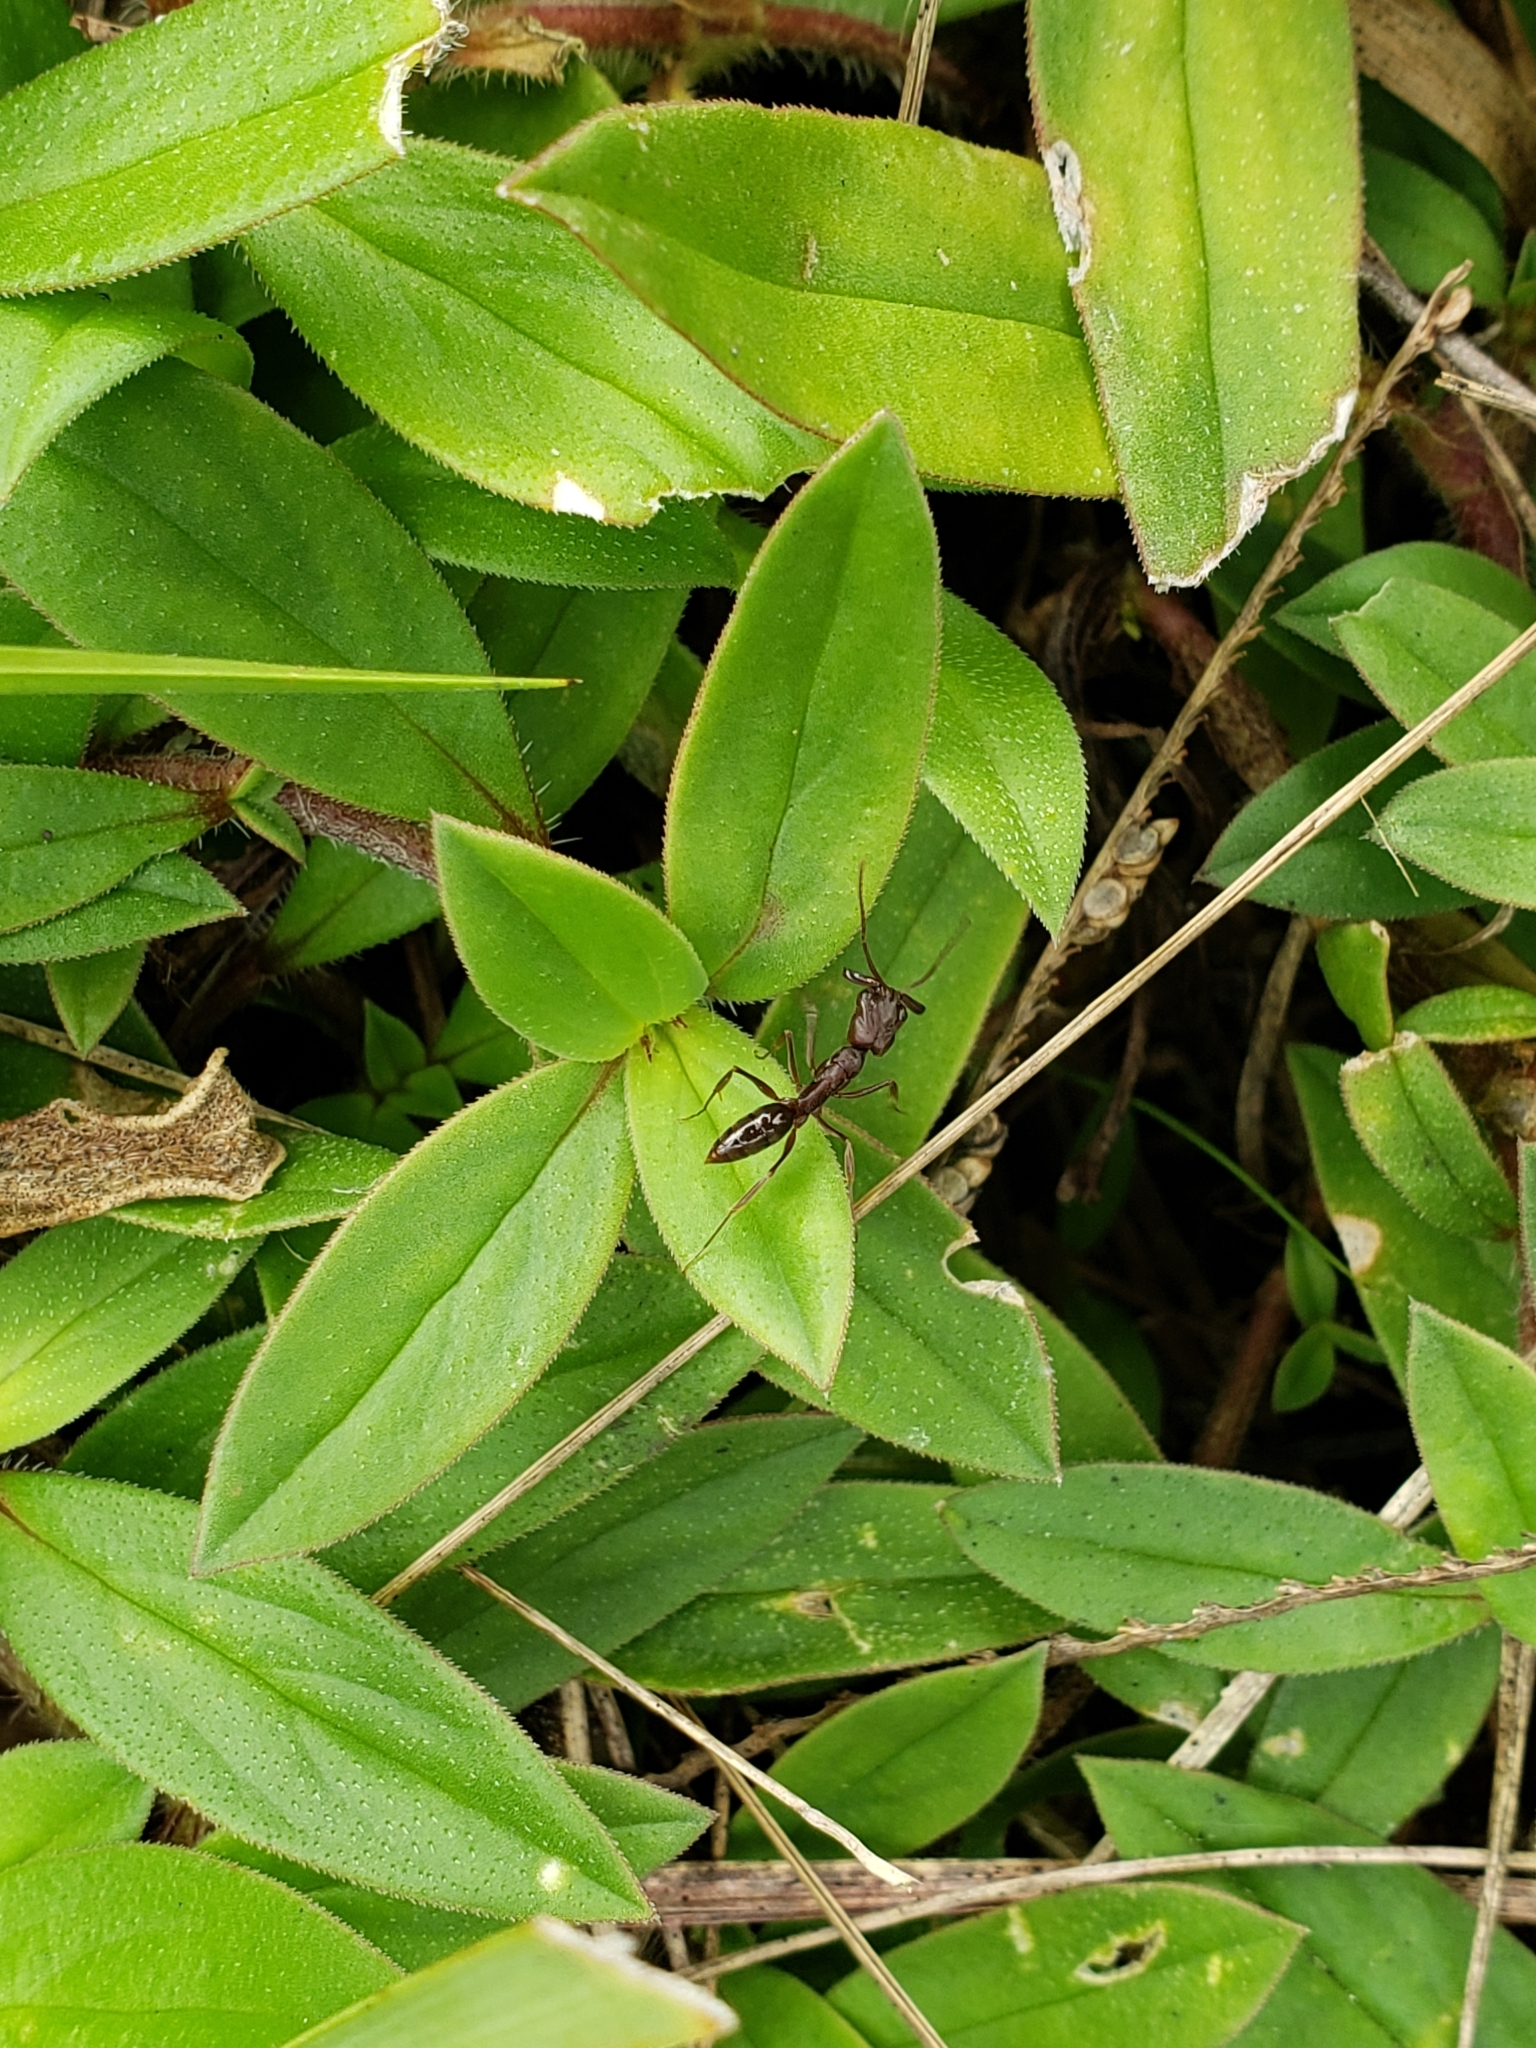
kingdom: Animalia
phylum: Arthropoda
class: Insecta
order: Hymenoptera
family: Formicidae
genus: Odontomachus
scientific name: Odontomachus brunneus
